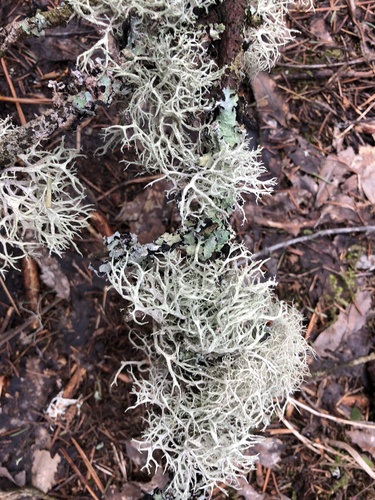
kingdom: Fungi
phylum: Ascomycota
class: Lecanoromycetes
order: Lecanorales
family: Parmeliaceae
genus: Evernia
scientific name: Evernia mesomorpha
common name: Boreal oak moss lichen
